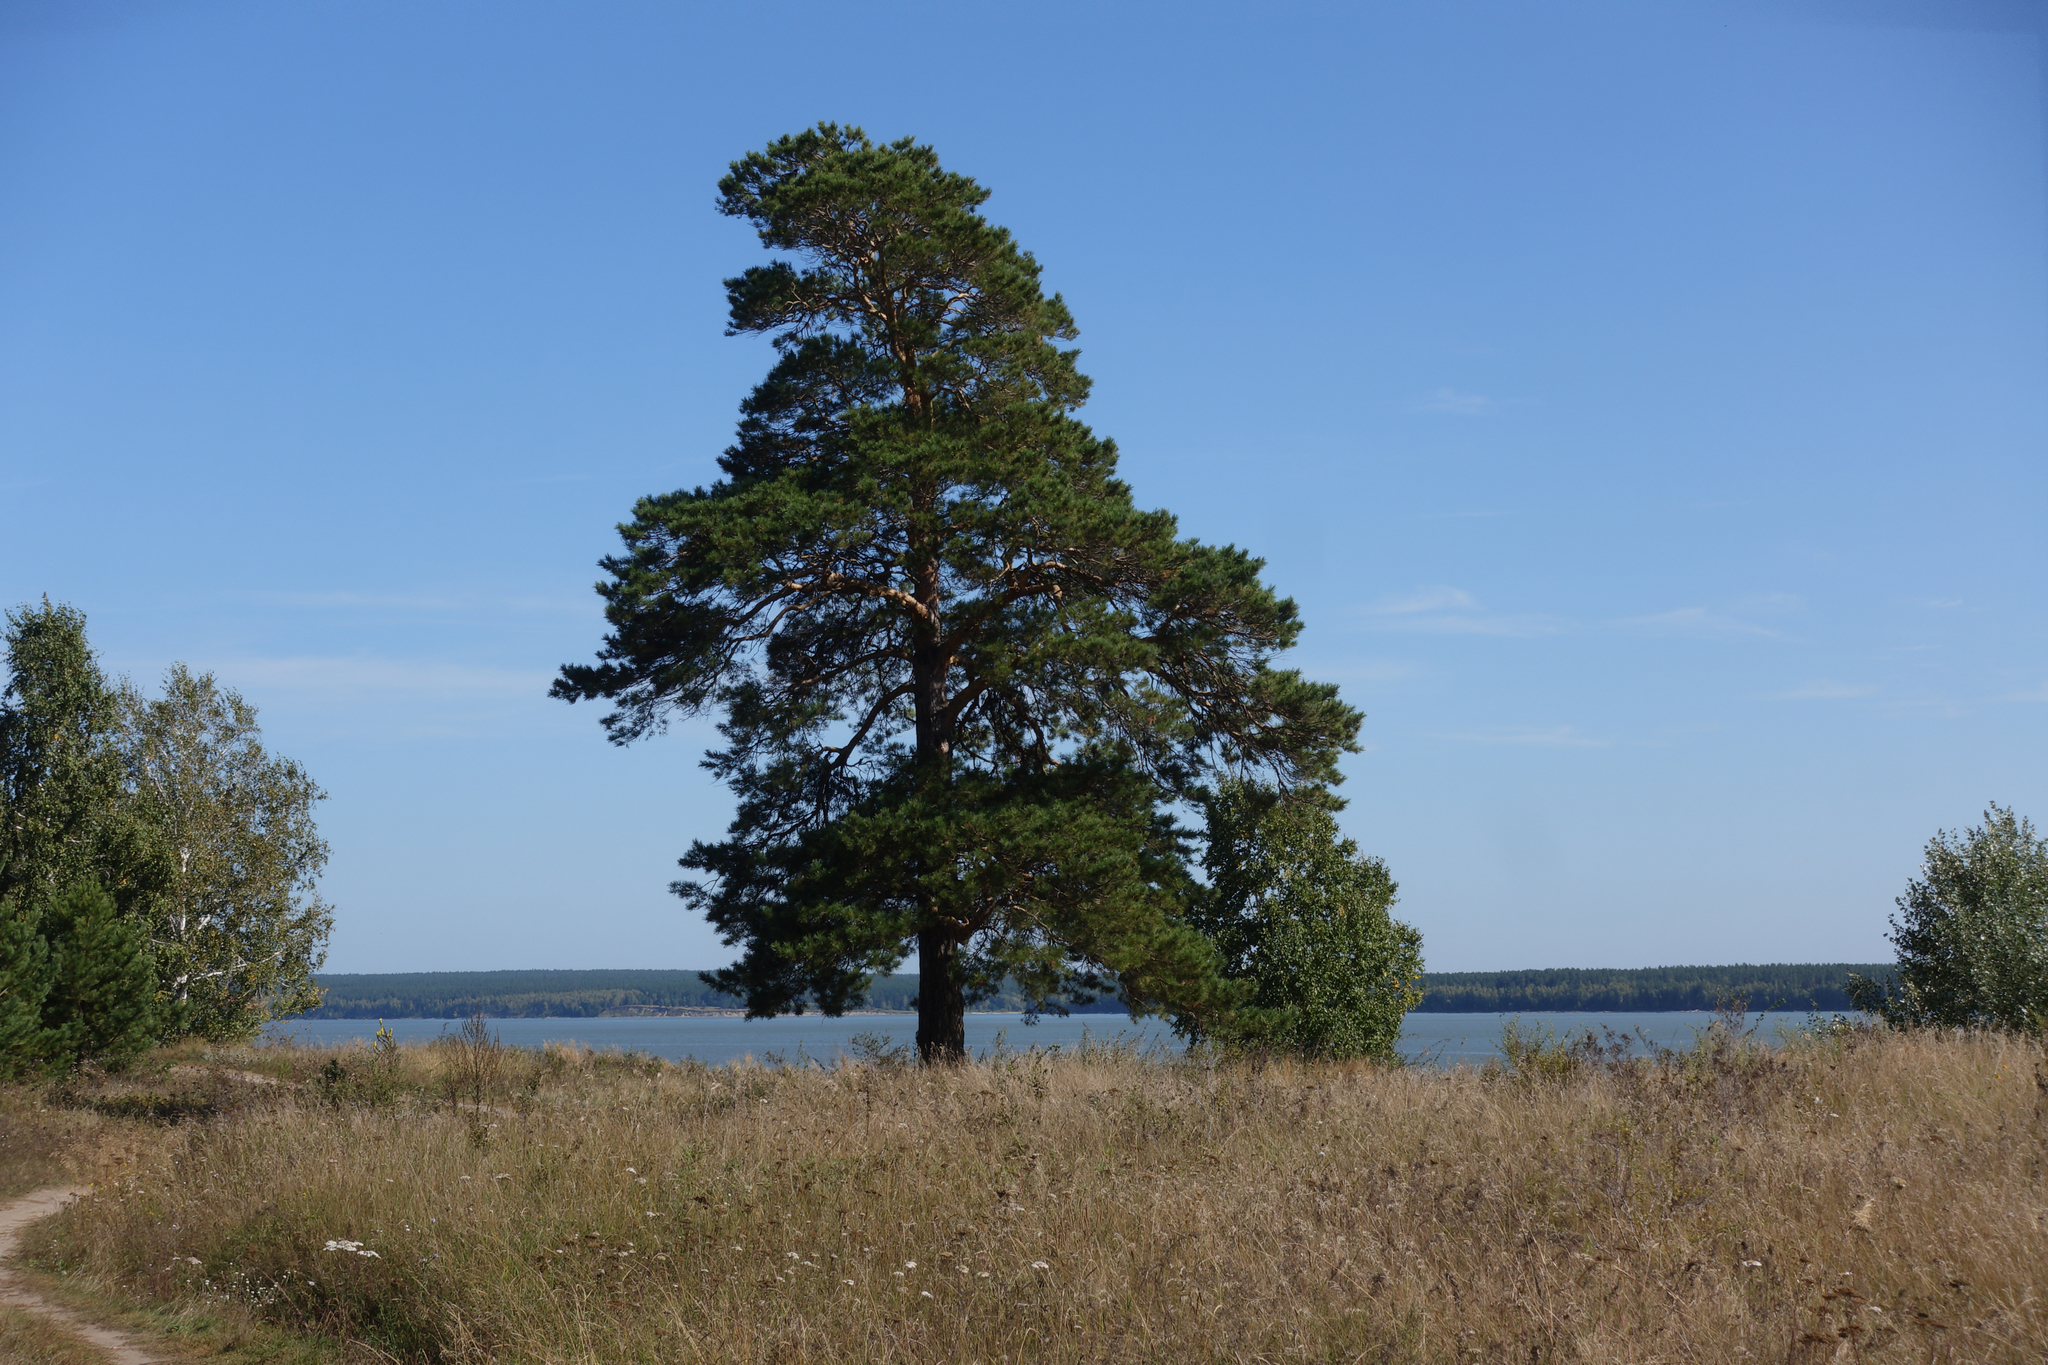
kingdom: Plantae
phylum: Tracheophyta
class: Pinopsida
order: Pinales
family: Pinaceae
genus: Pinus
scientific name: Pinus sylvestris
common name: Scots pine
